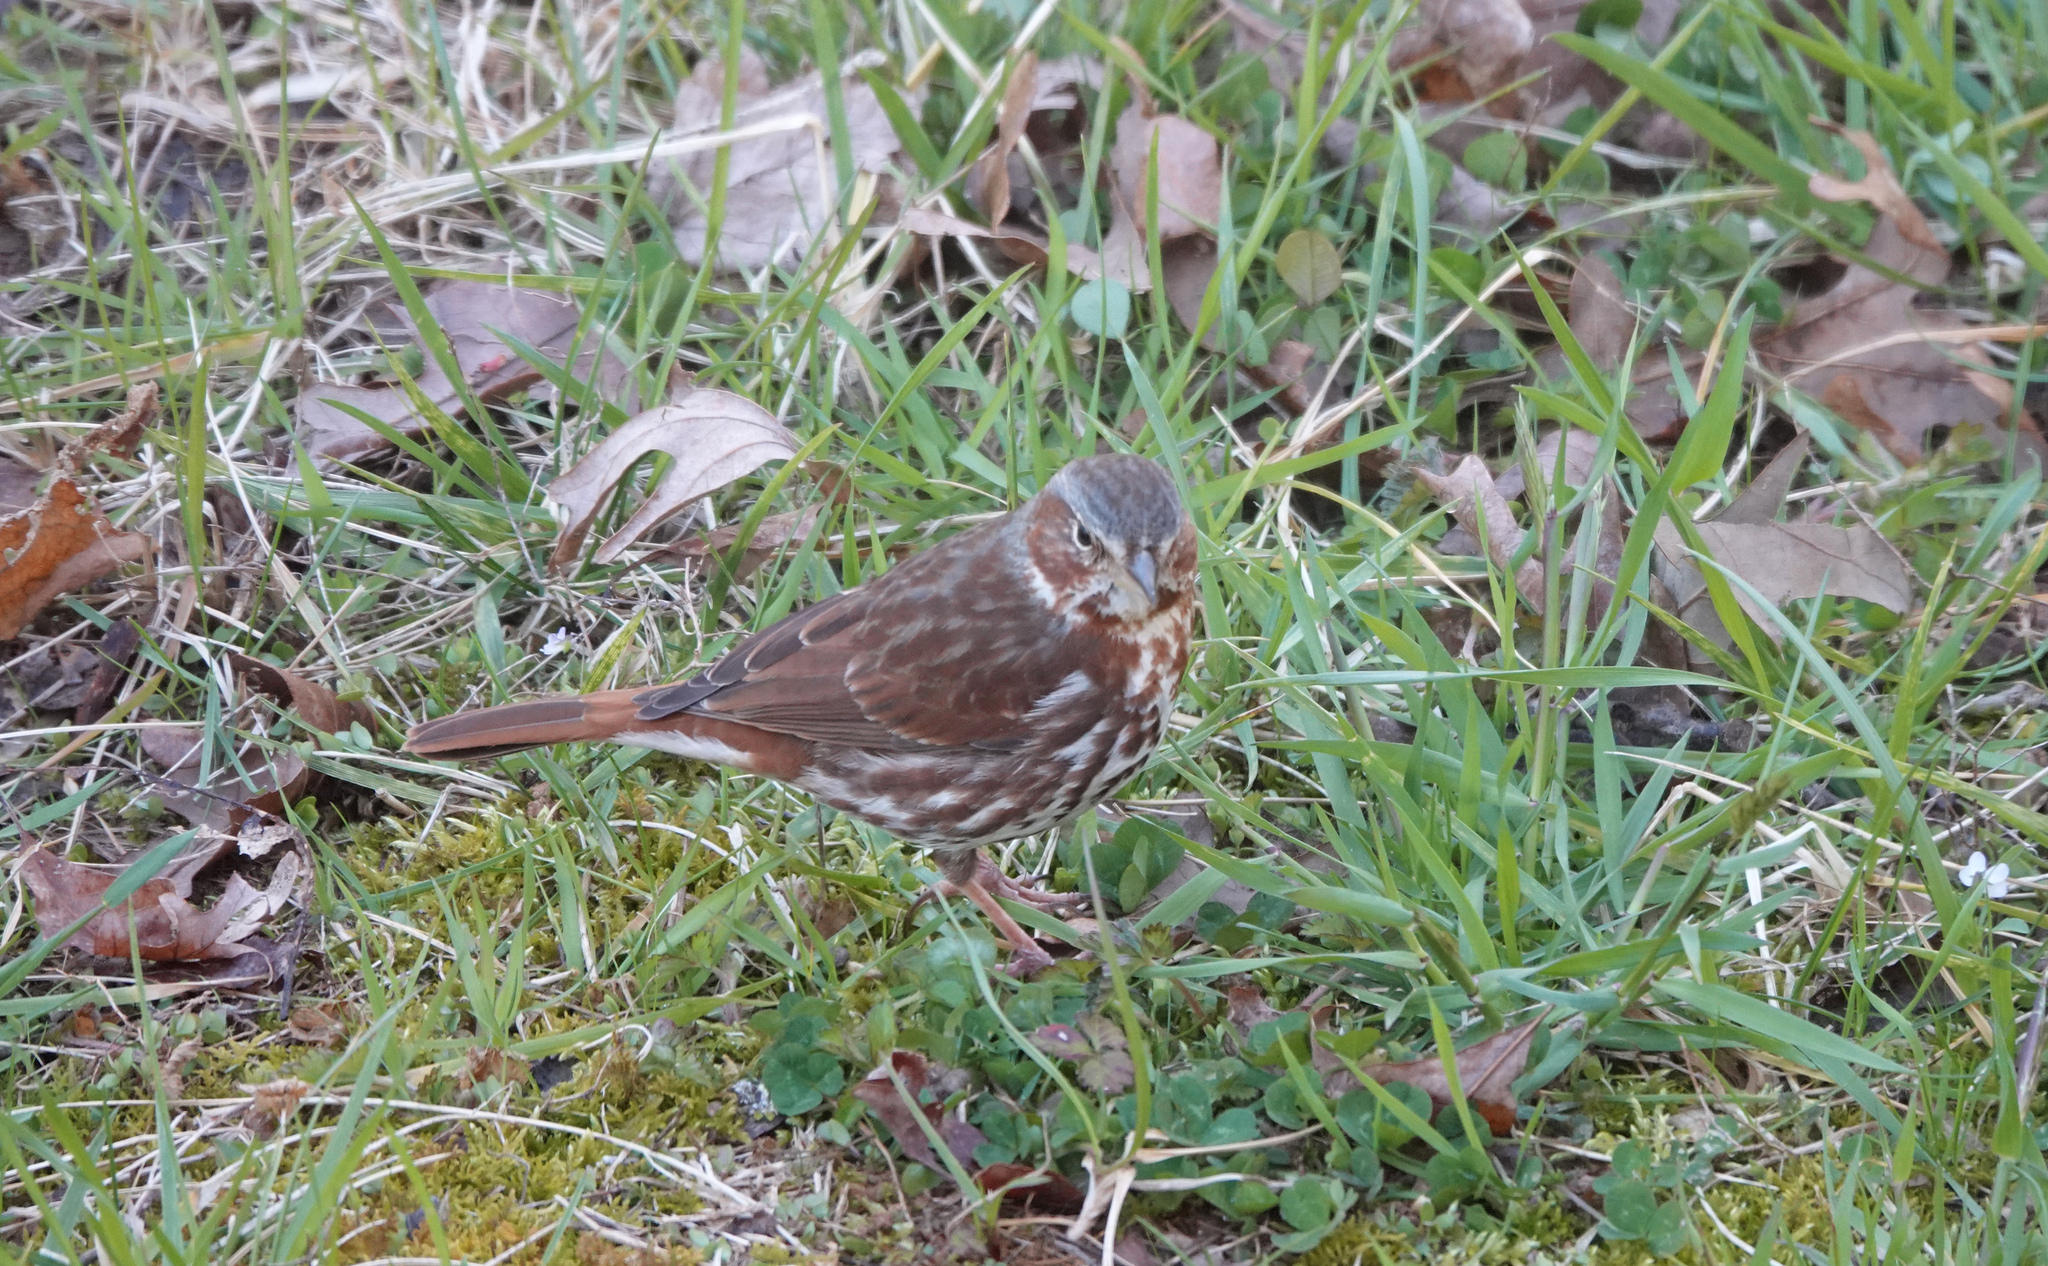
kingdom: Animalia
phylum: Chordata
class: Aves
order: Passeriformes
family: Passerellidae
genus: Passerella
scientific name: Passerella iliaca
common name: Fox sparrow
